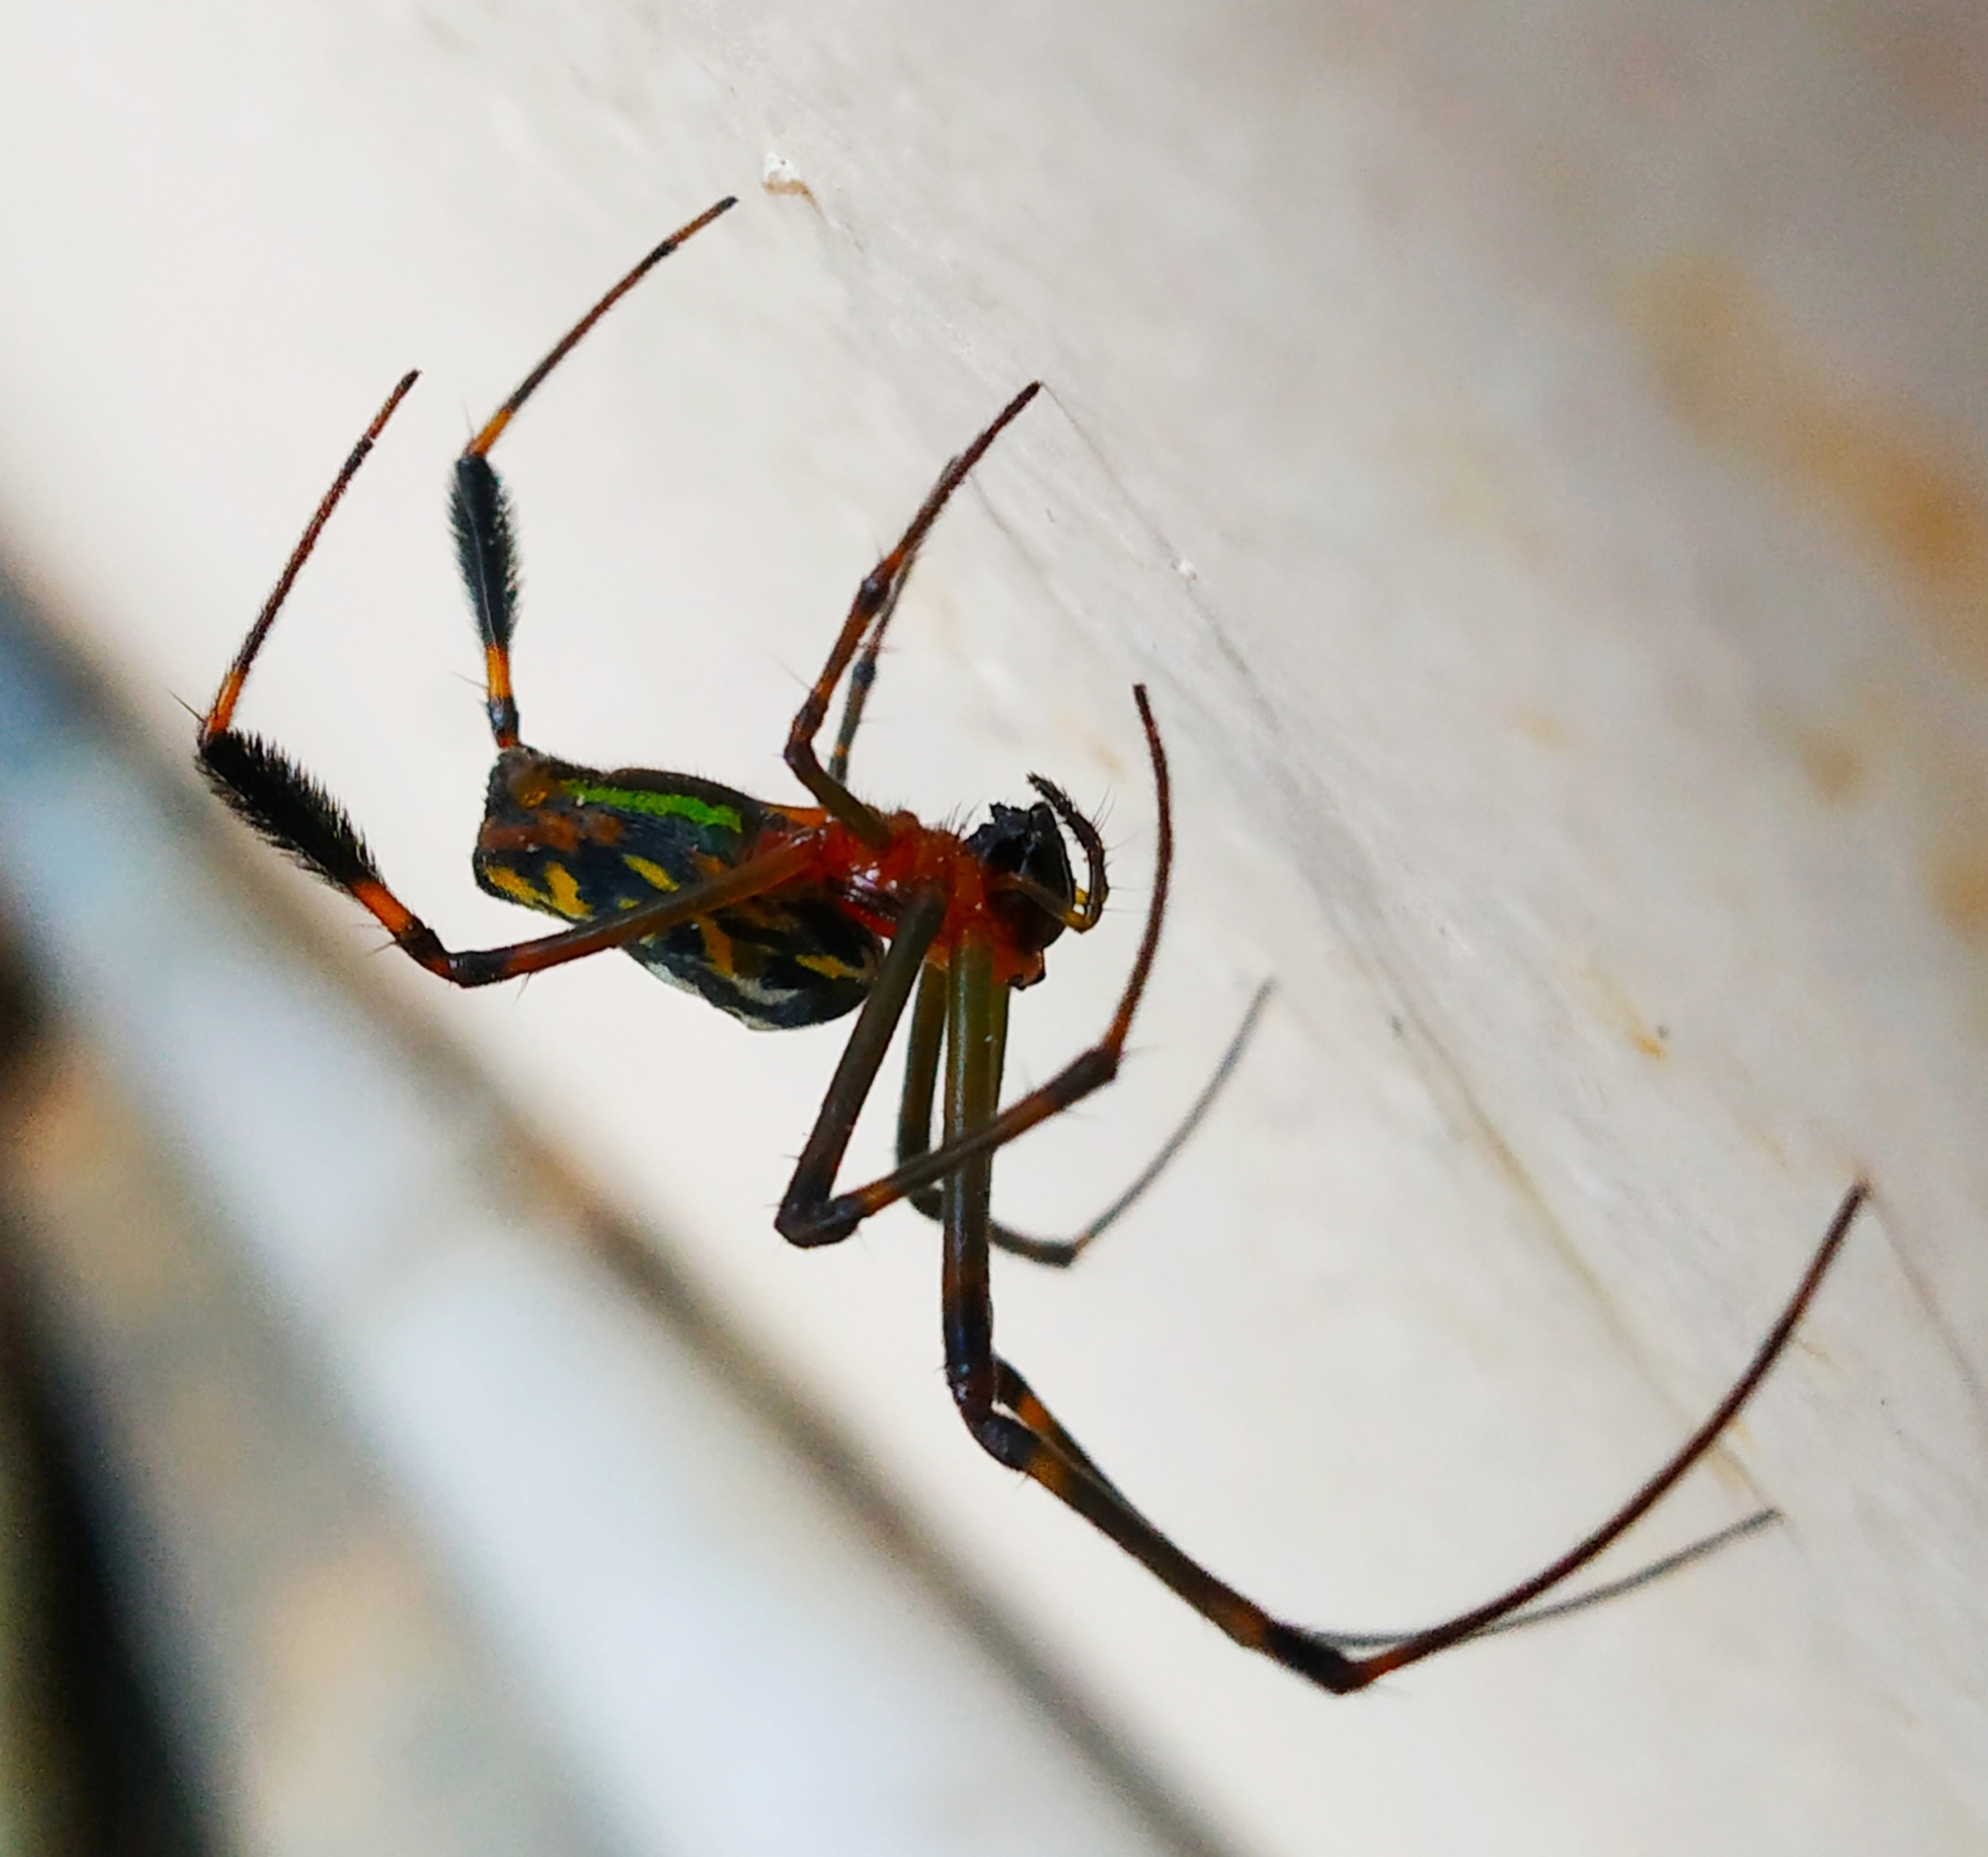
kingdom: Animalia
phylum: Arthropoda
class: Arachnida
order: Araneae
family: Tetragnathidae
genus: Leucauge
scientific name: Leucauge tessellata
